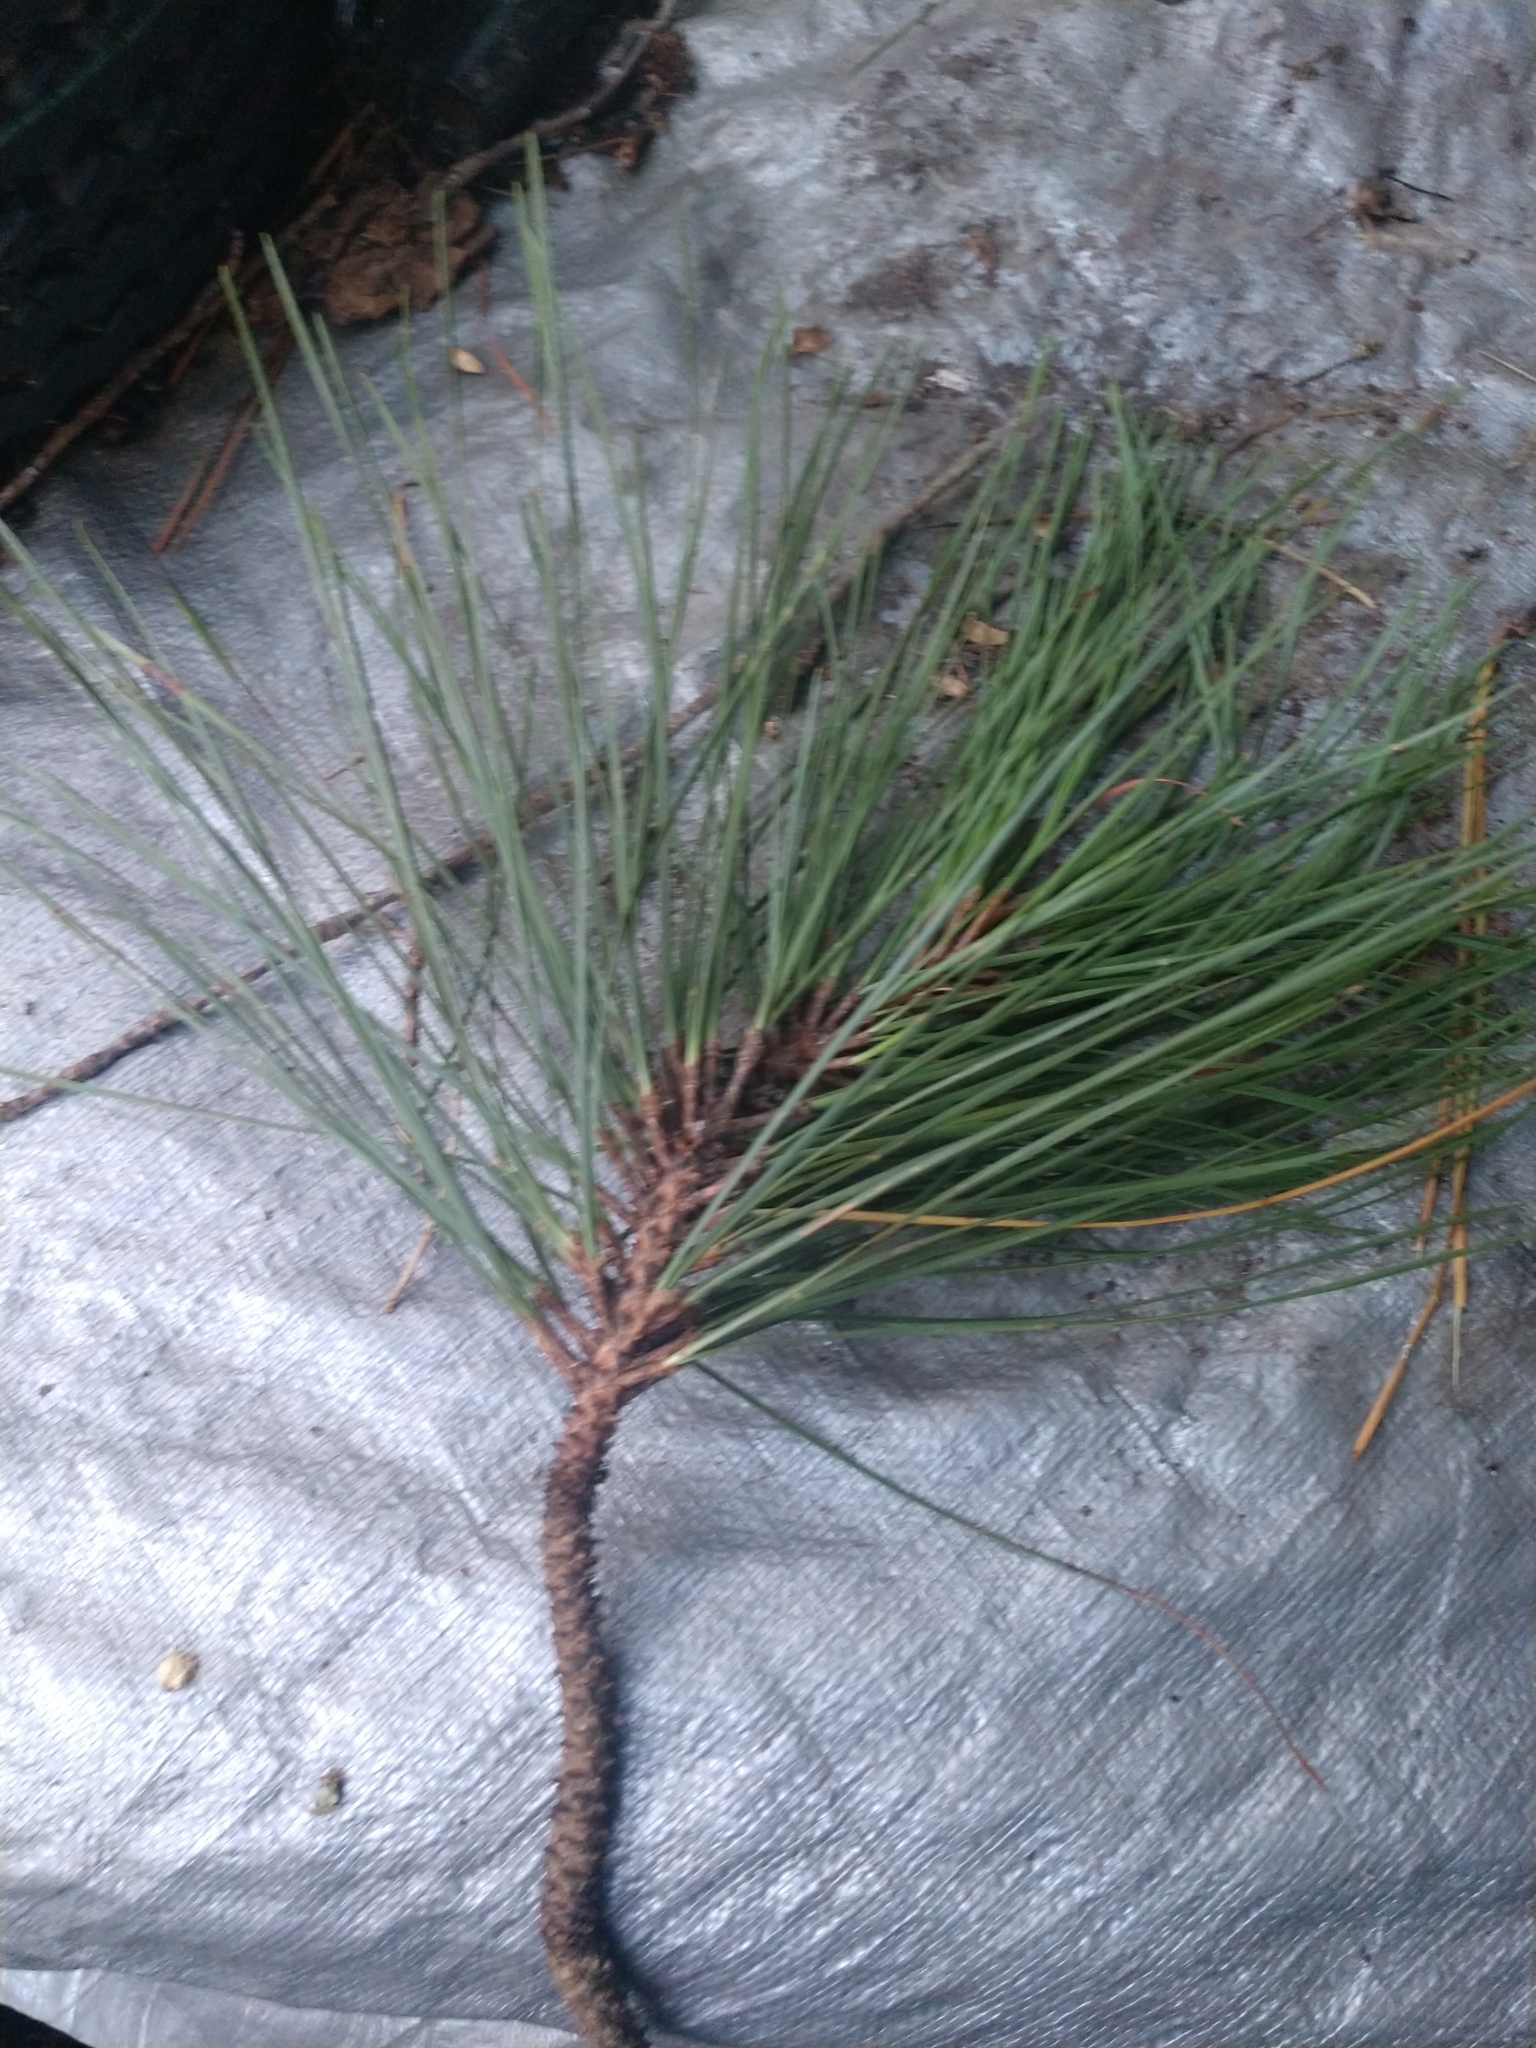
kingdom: Plantae
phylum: Tracheophyta
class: Pinopsida
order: Pinales
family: Pinaceae
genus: Pinus
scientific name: Pinus taeda
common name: Loblolly pine
